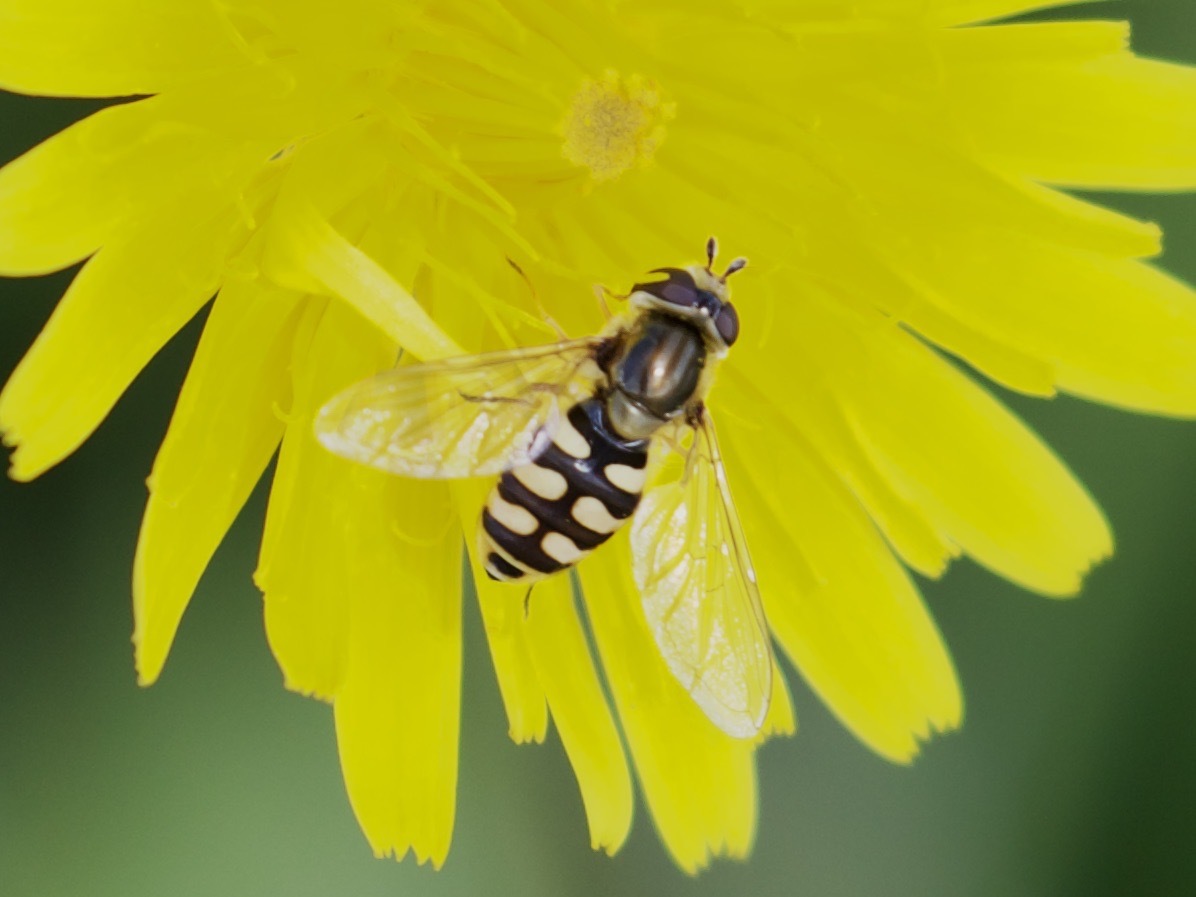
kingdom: Animalia
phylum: Arthropoda
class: Insecta
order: Diptera
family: Syrphidae
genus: Eupeodes
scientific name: Eupeodes corollae
